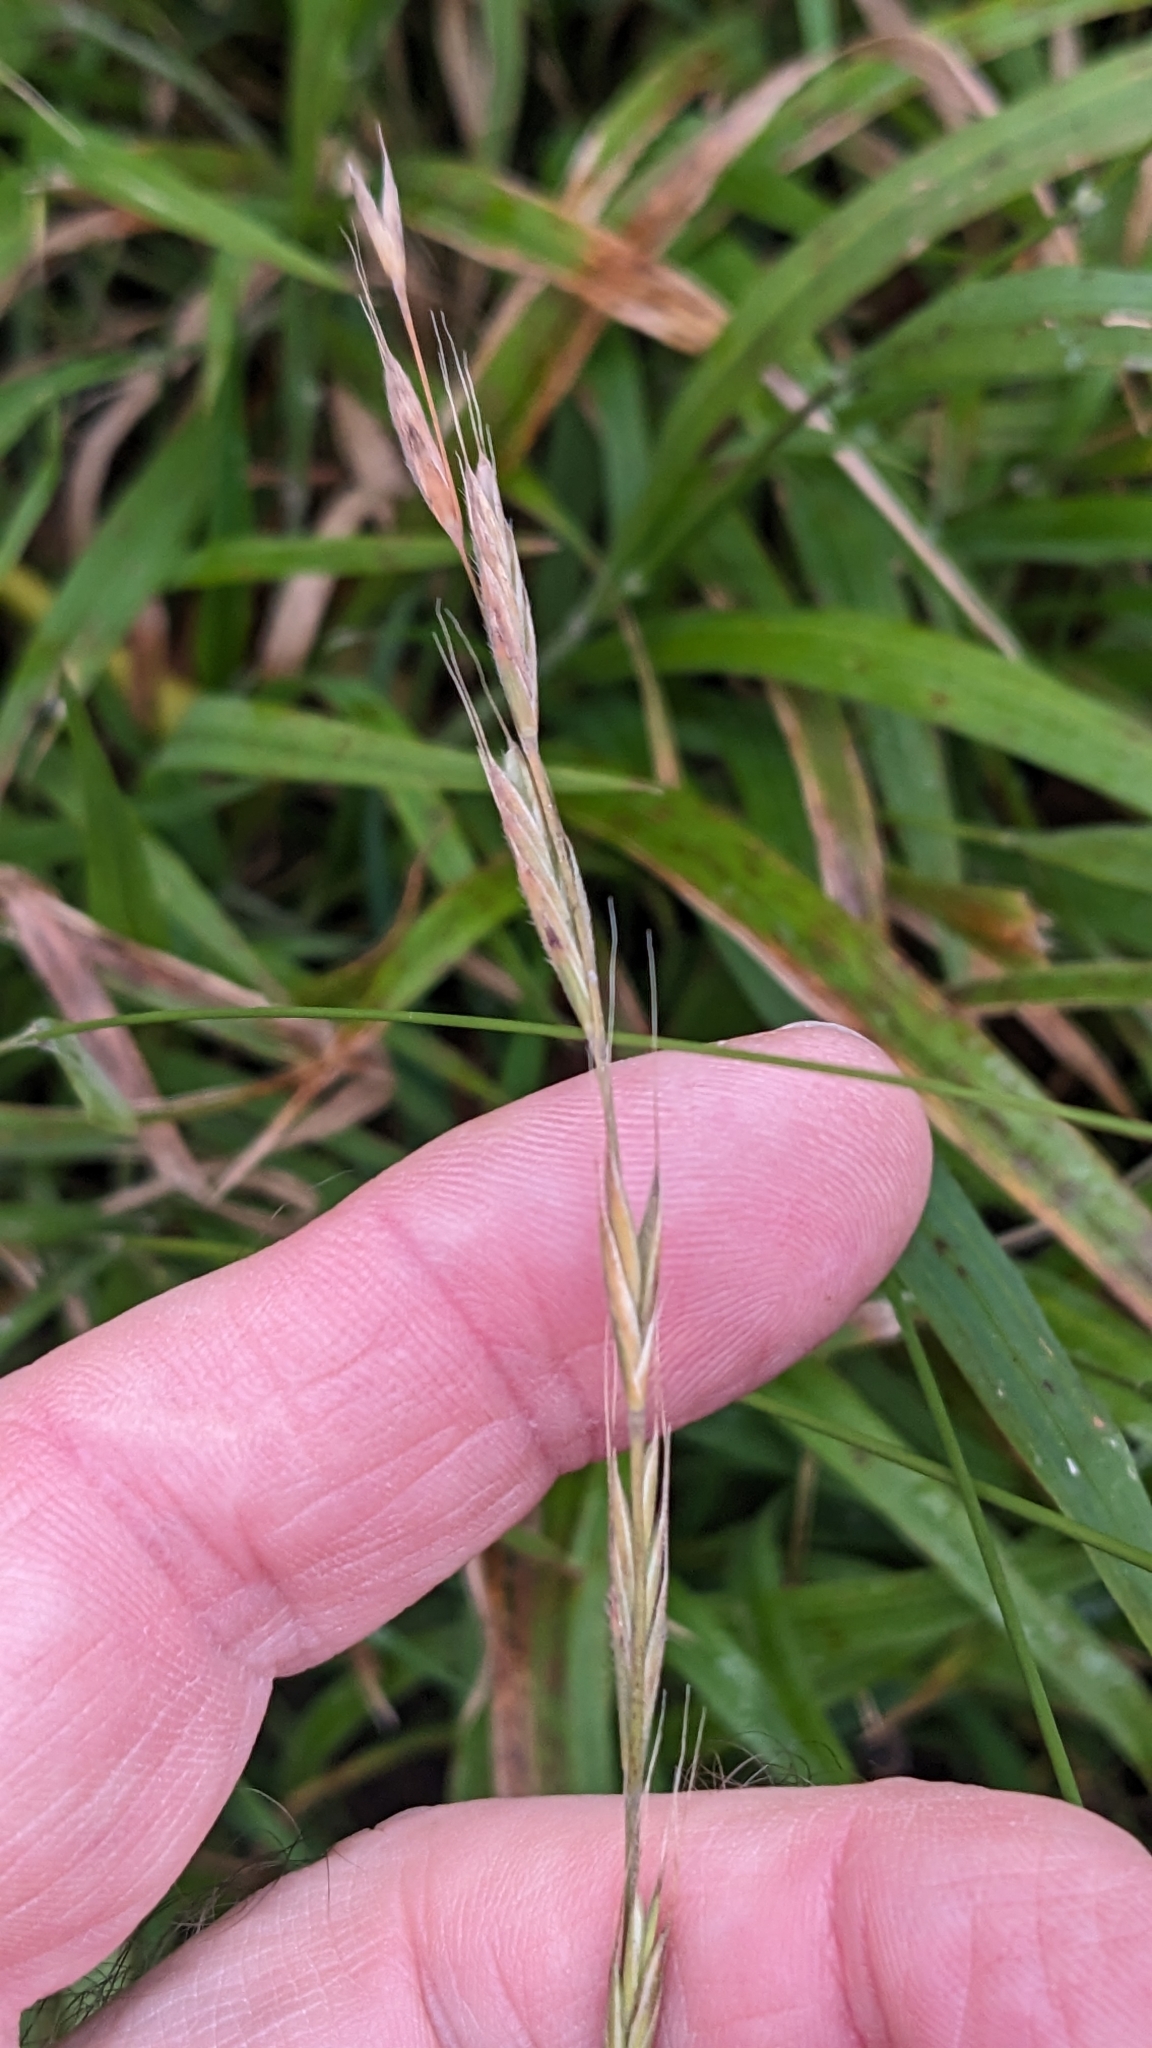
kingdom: Plantae
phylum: Tracheophyta
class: Liliopsida
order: Poales
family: Poaceae
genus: Brachypodium
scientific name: Brachypodium sylvaticum
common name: False-brome
